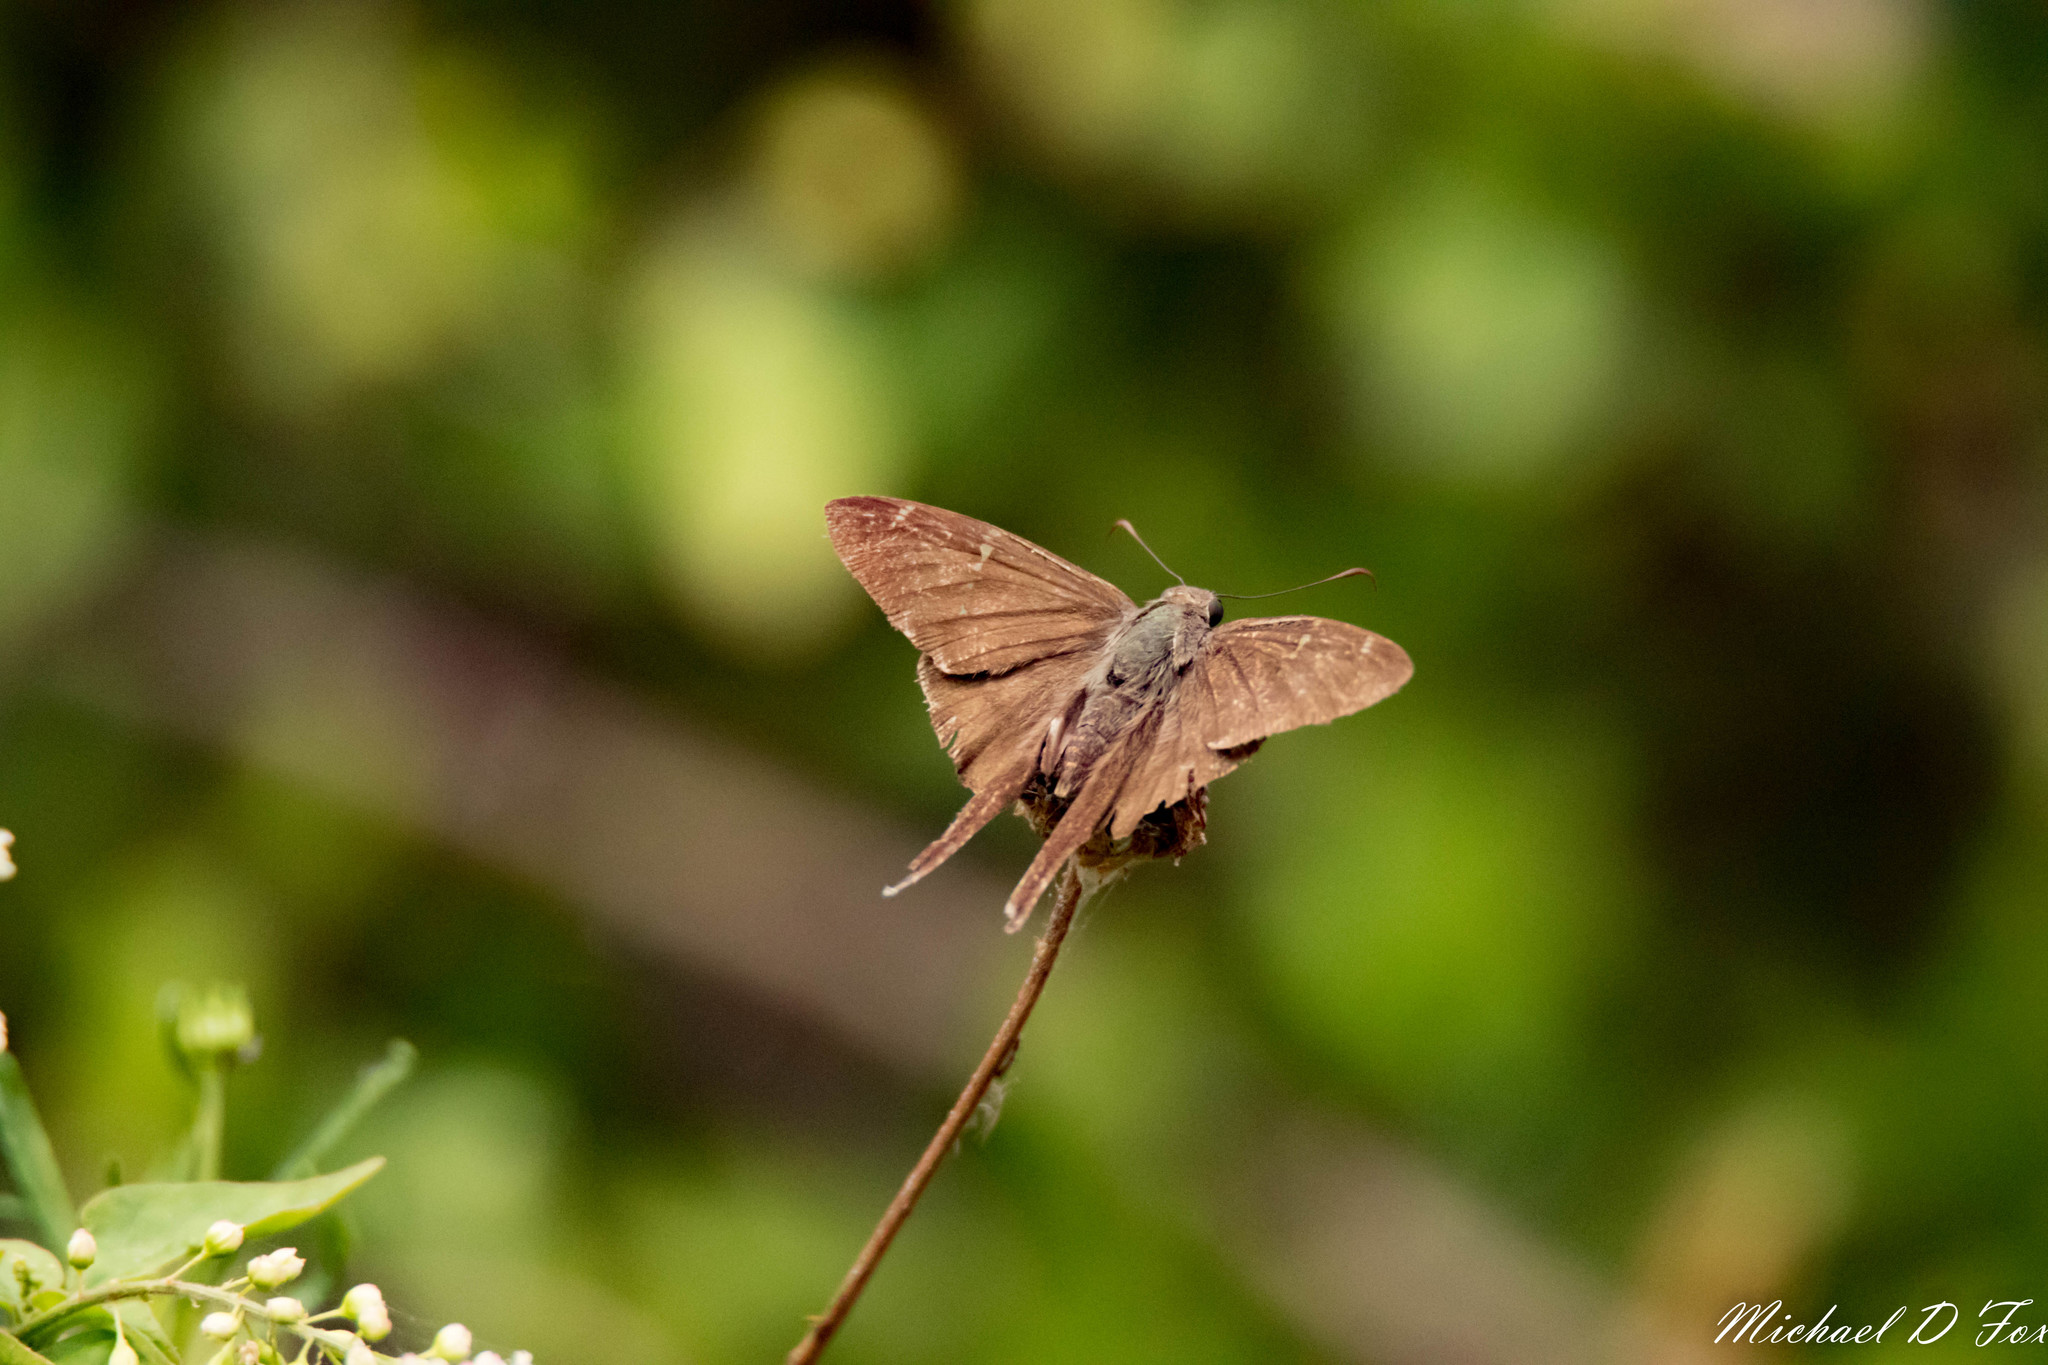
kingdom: Animalia
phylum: Arthropoda
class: Insecta
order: Lepidoptera
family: Hesperiidae
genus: Urbanus
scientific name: Urbanus procne
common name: Brown longtail
